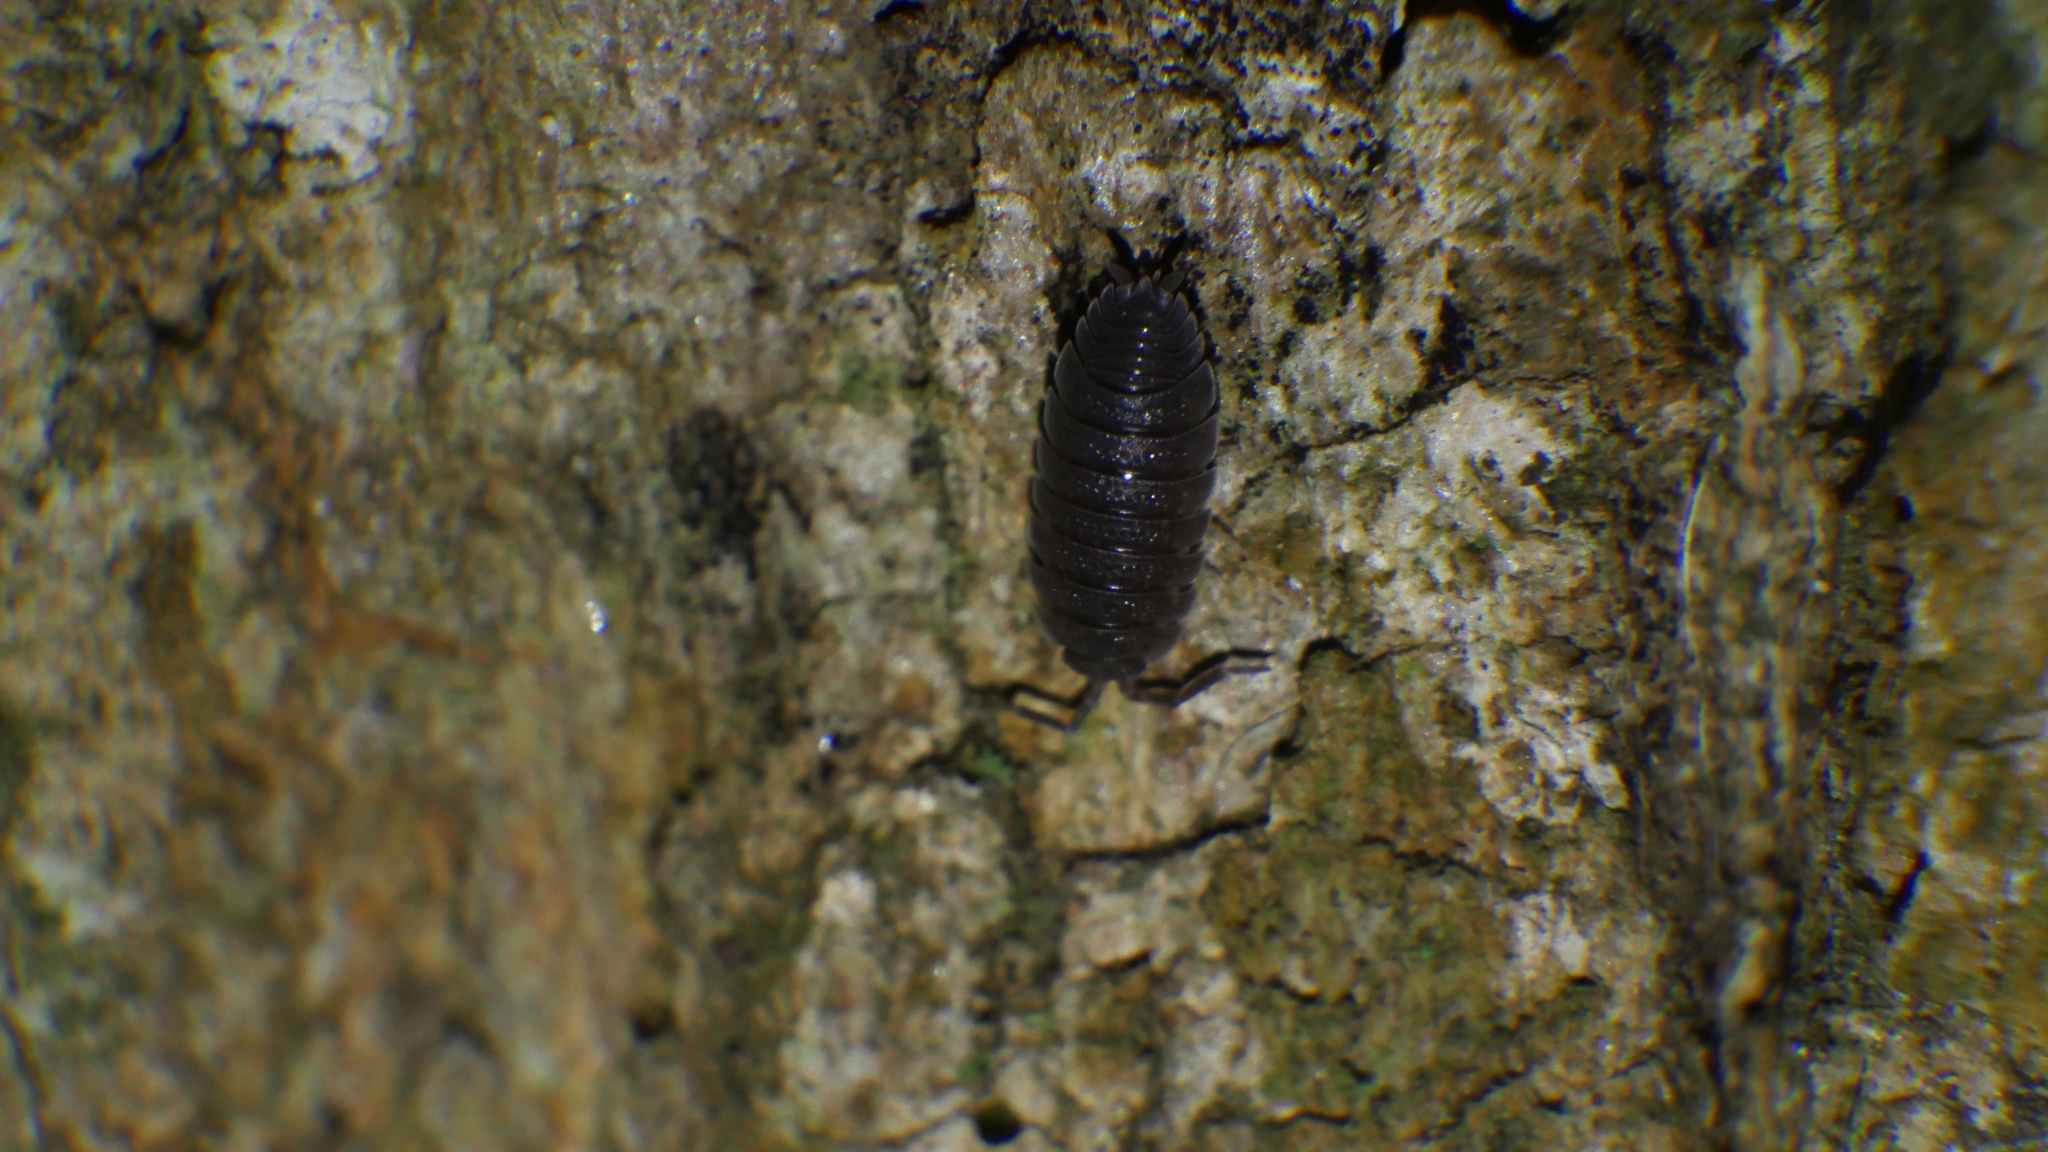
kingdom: Animalia
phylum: Arthropoda
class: Malacostraca
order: Isopoda
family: Porcellionidae
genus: Porcellio
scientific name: Porcellio scaber
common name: Common rough woodlouse
